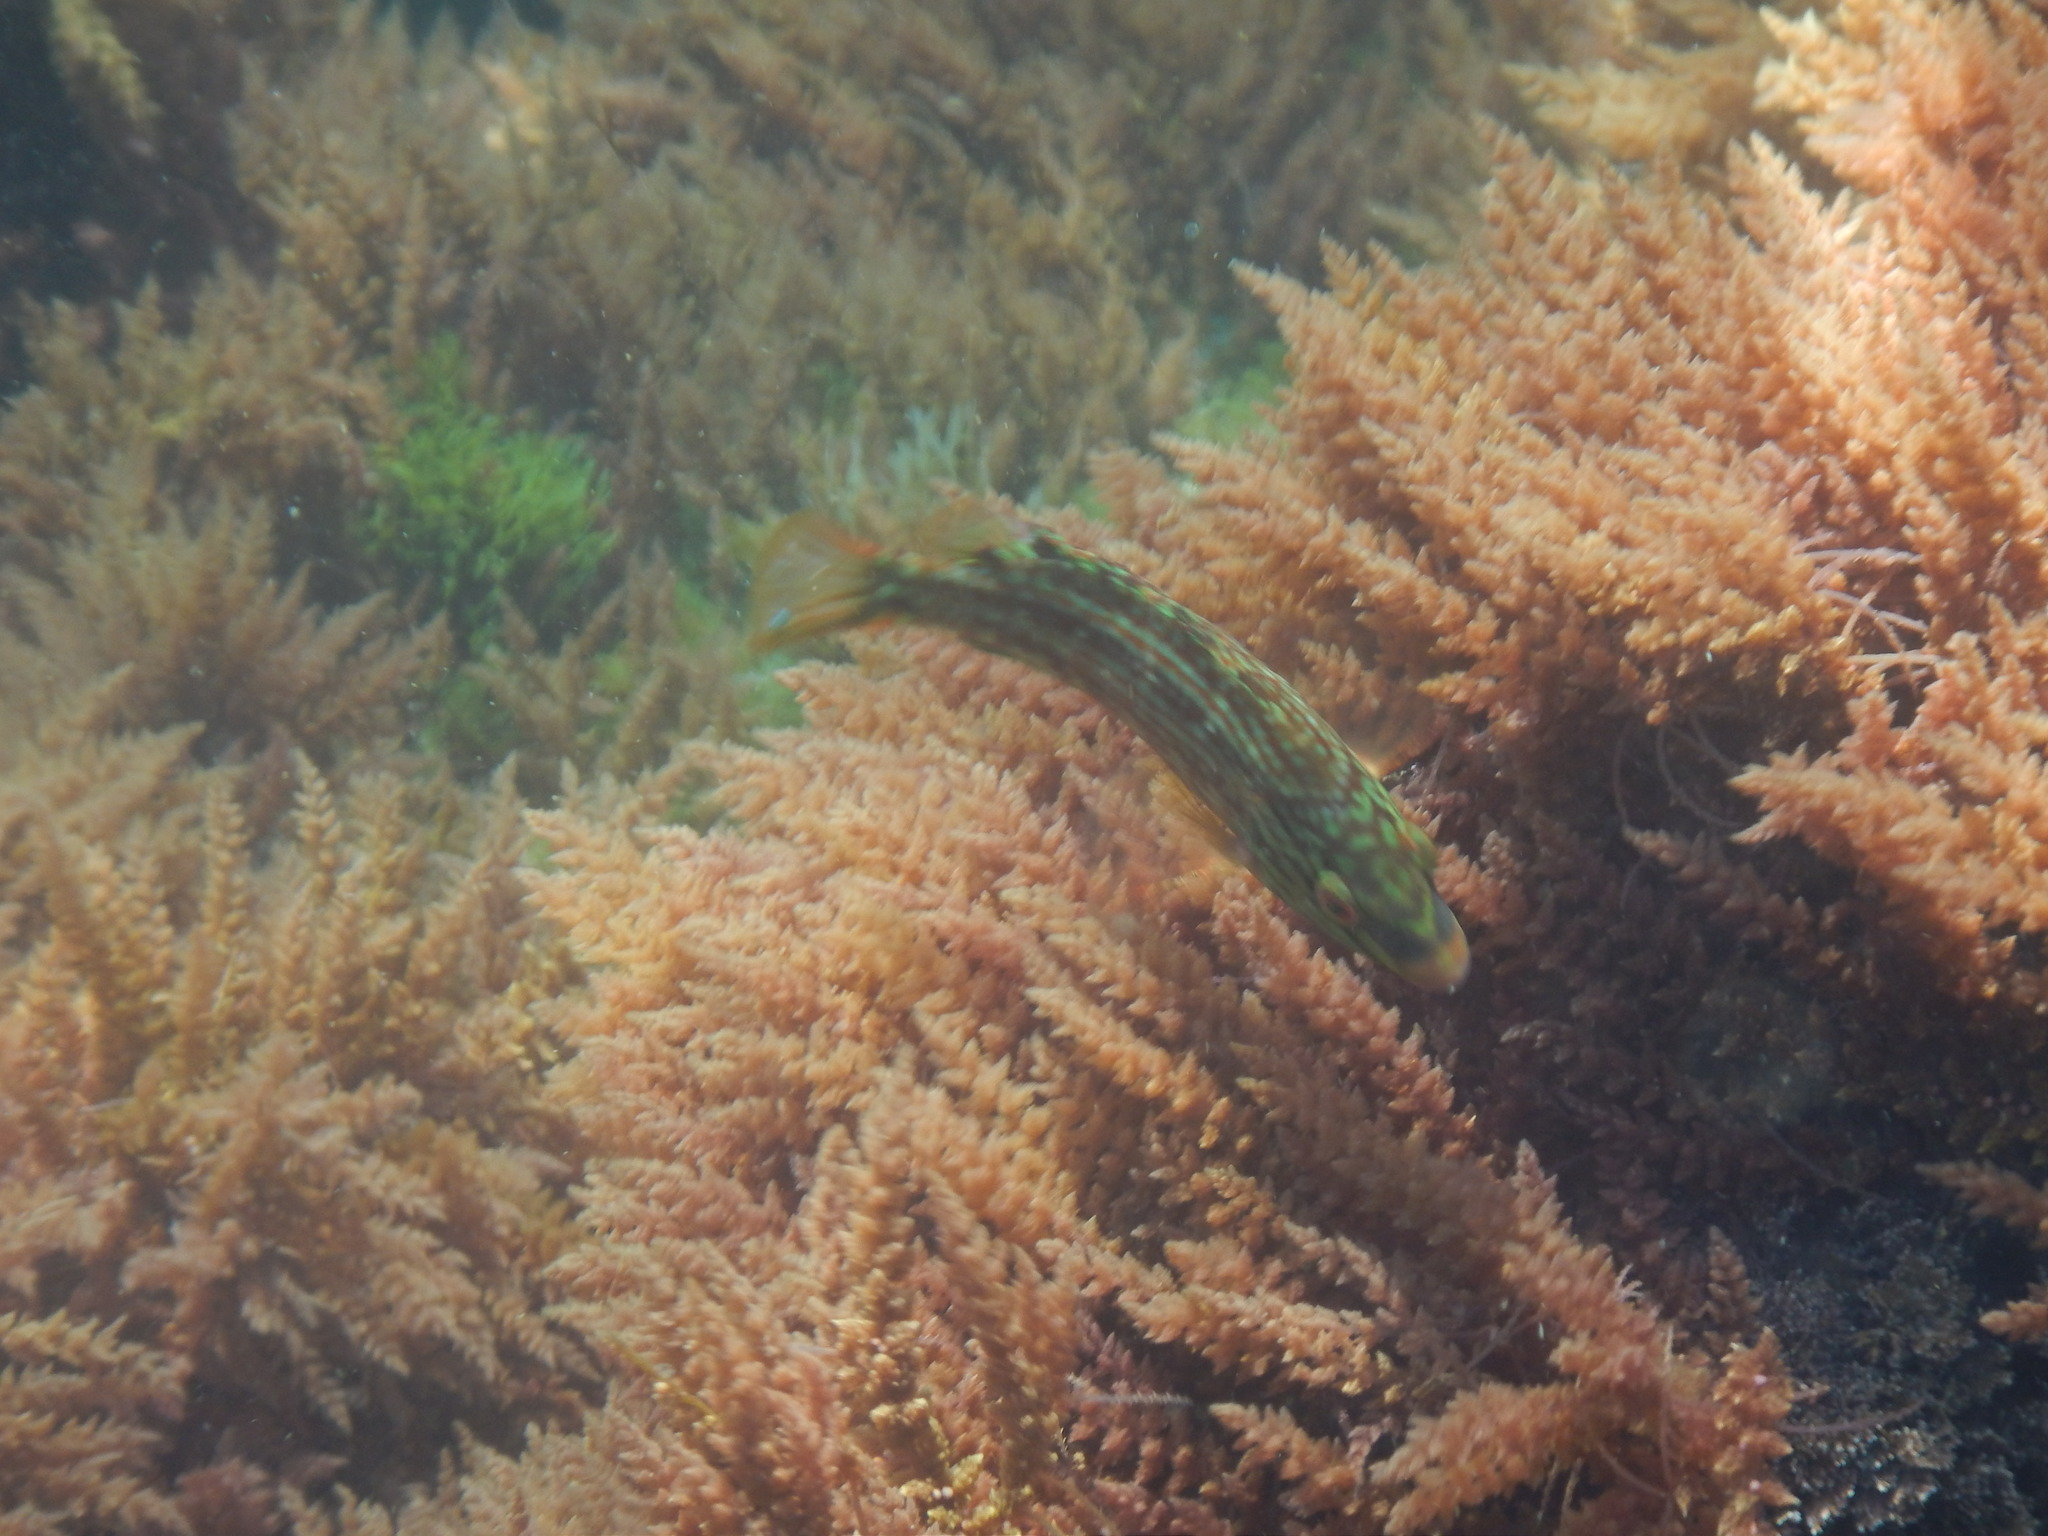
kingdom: Animalia
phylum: Chordata
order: Perciformes
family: Labridae
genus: Symphodus
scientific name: Symphodus roissali
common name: Five-spotted wrasse
